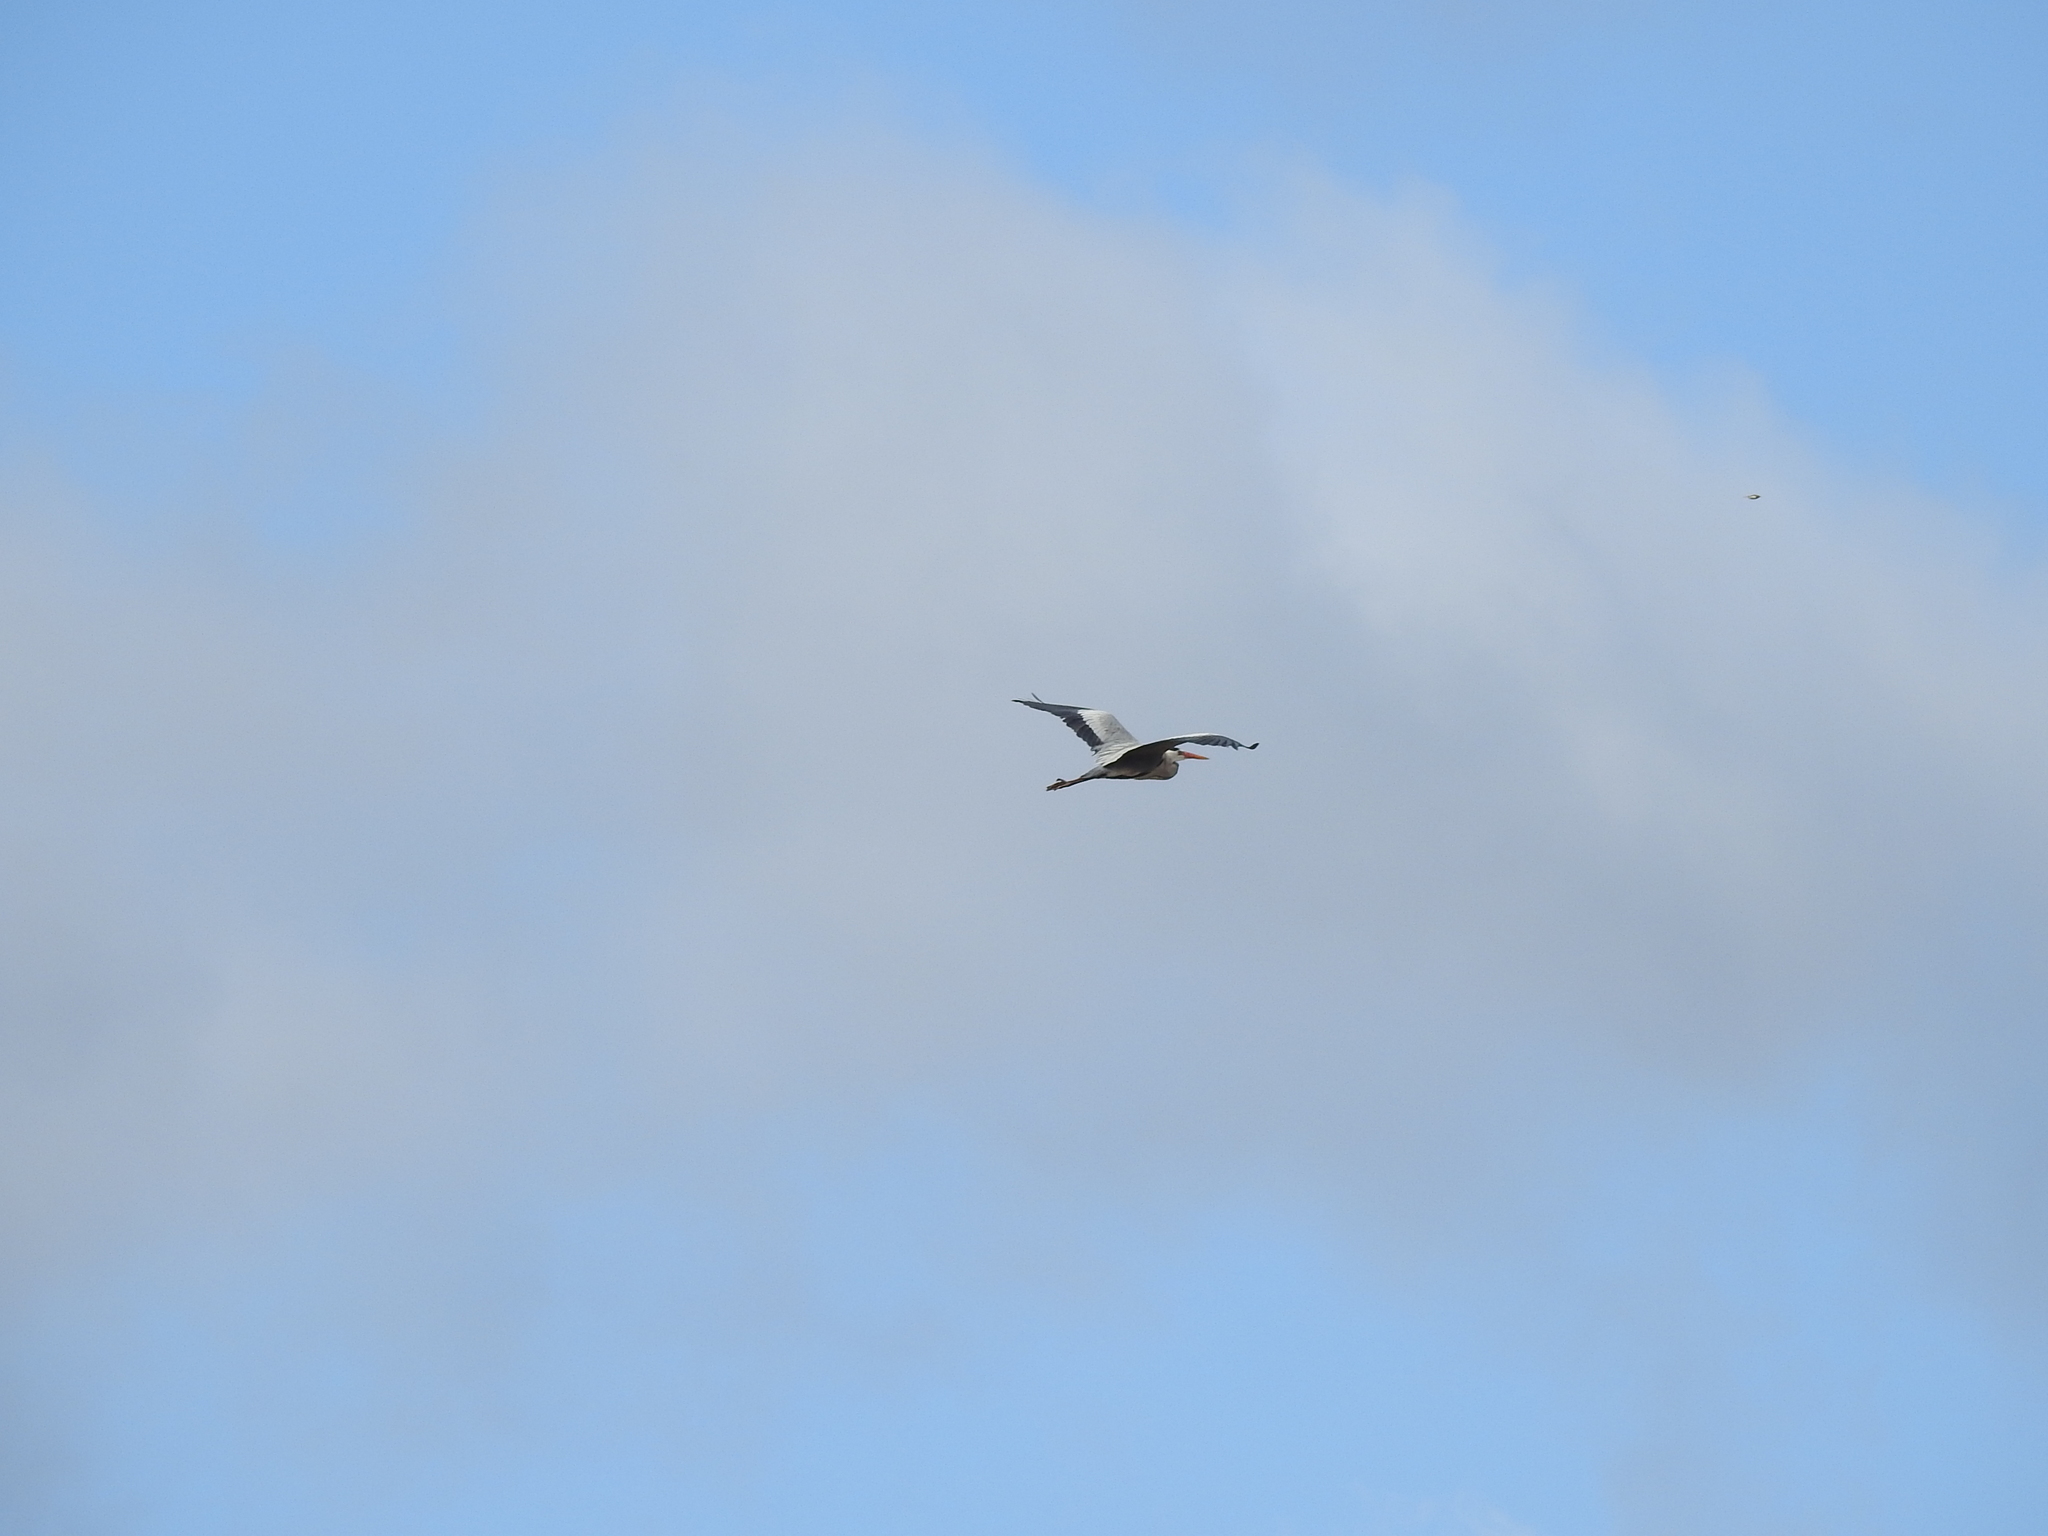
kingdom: Animalia
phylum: Chordata
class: Aves
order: Pelecaniformes
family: Ardeidae
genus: Ardea
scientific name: Ardea cinerea
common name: Grey heron
